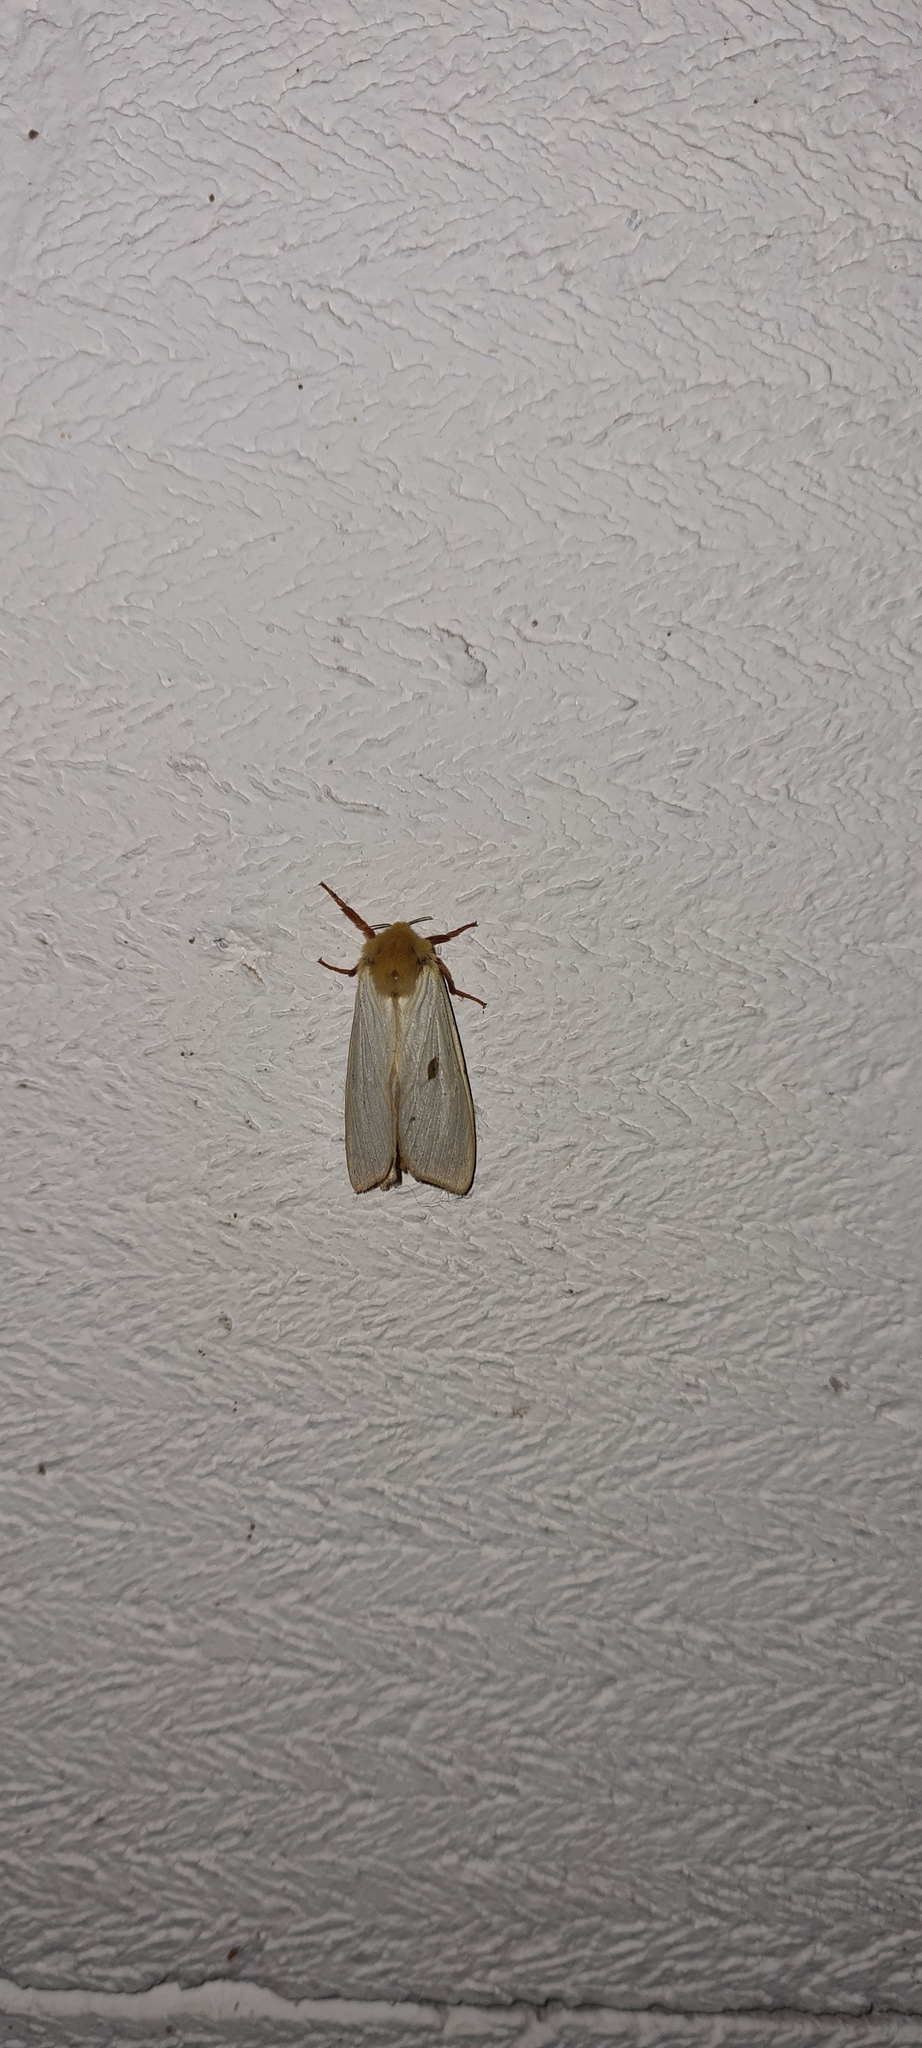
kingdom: Animalia
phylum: Arthropoda
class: Insecta
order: Lepidoptera
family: Hepialidae
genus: Hepialus
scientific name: Hepialus humuli
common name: Ghost moth
